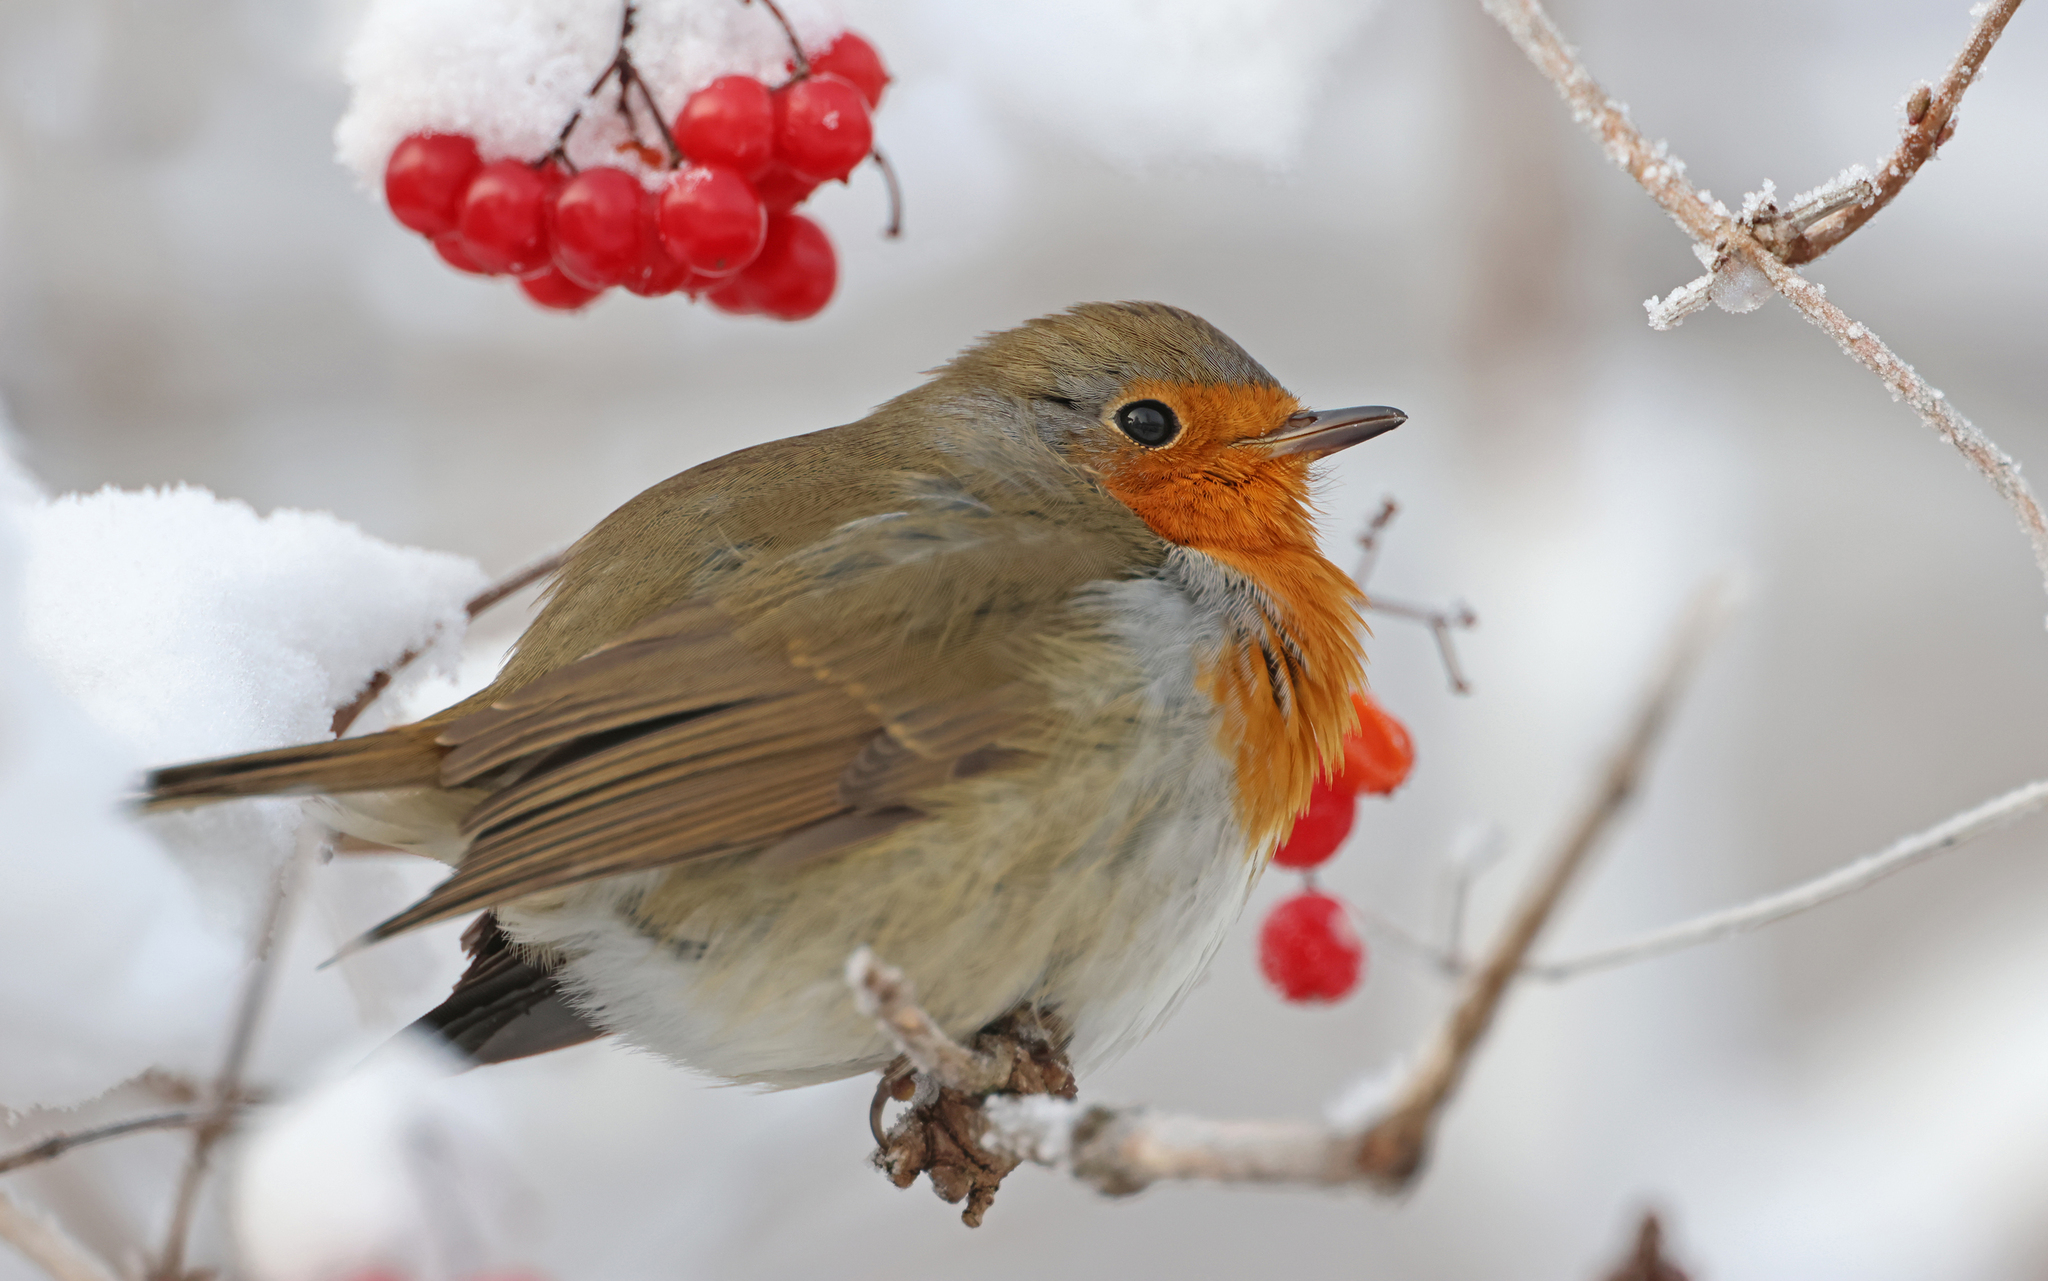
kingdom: Animalia
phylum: Chordata
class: Aves
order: Passeriformes
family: Muscicapidae
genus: Erithacus
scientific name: Erithacus rubecula
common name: European robin
